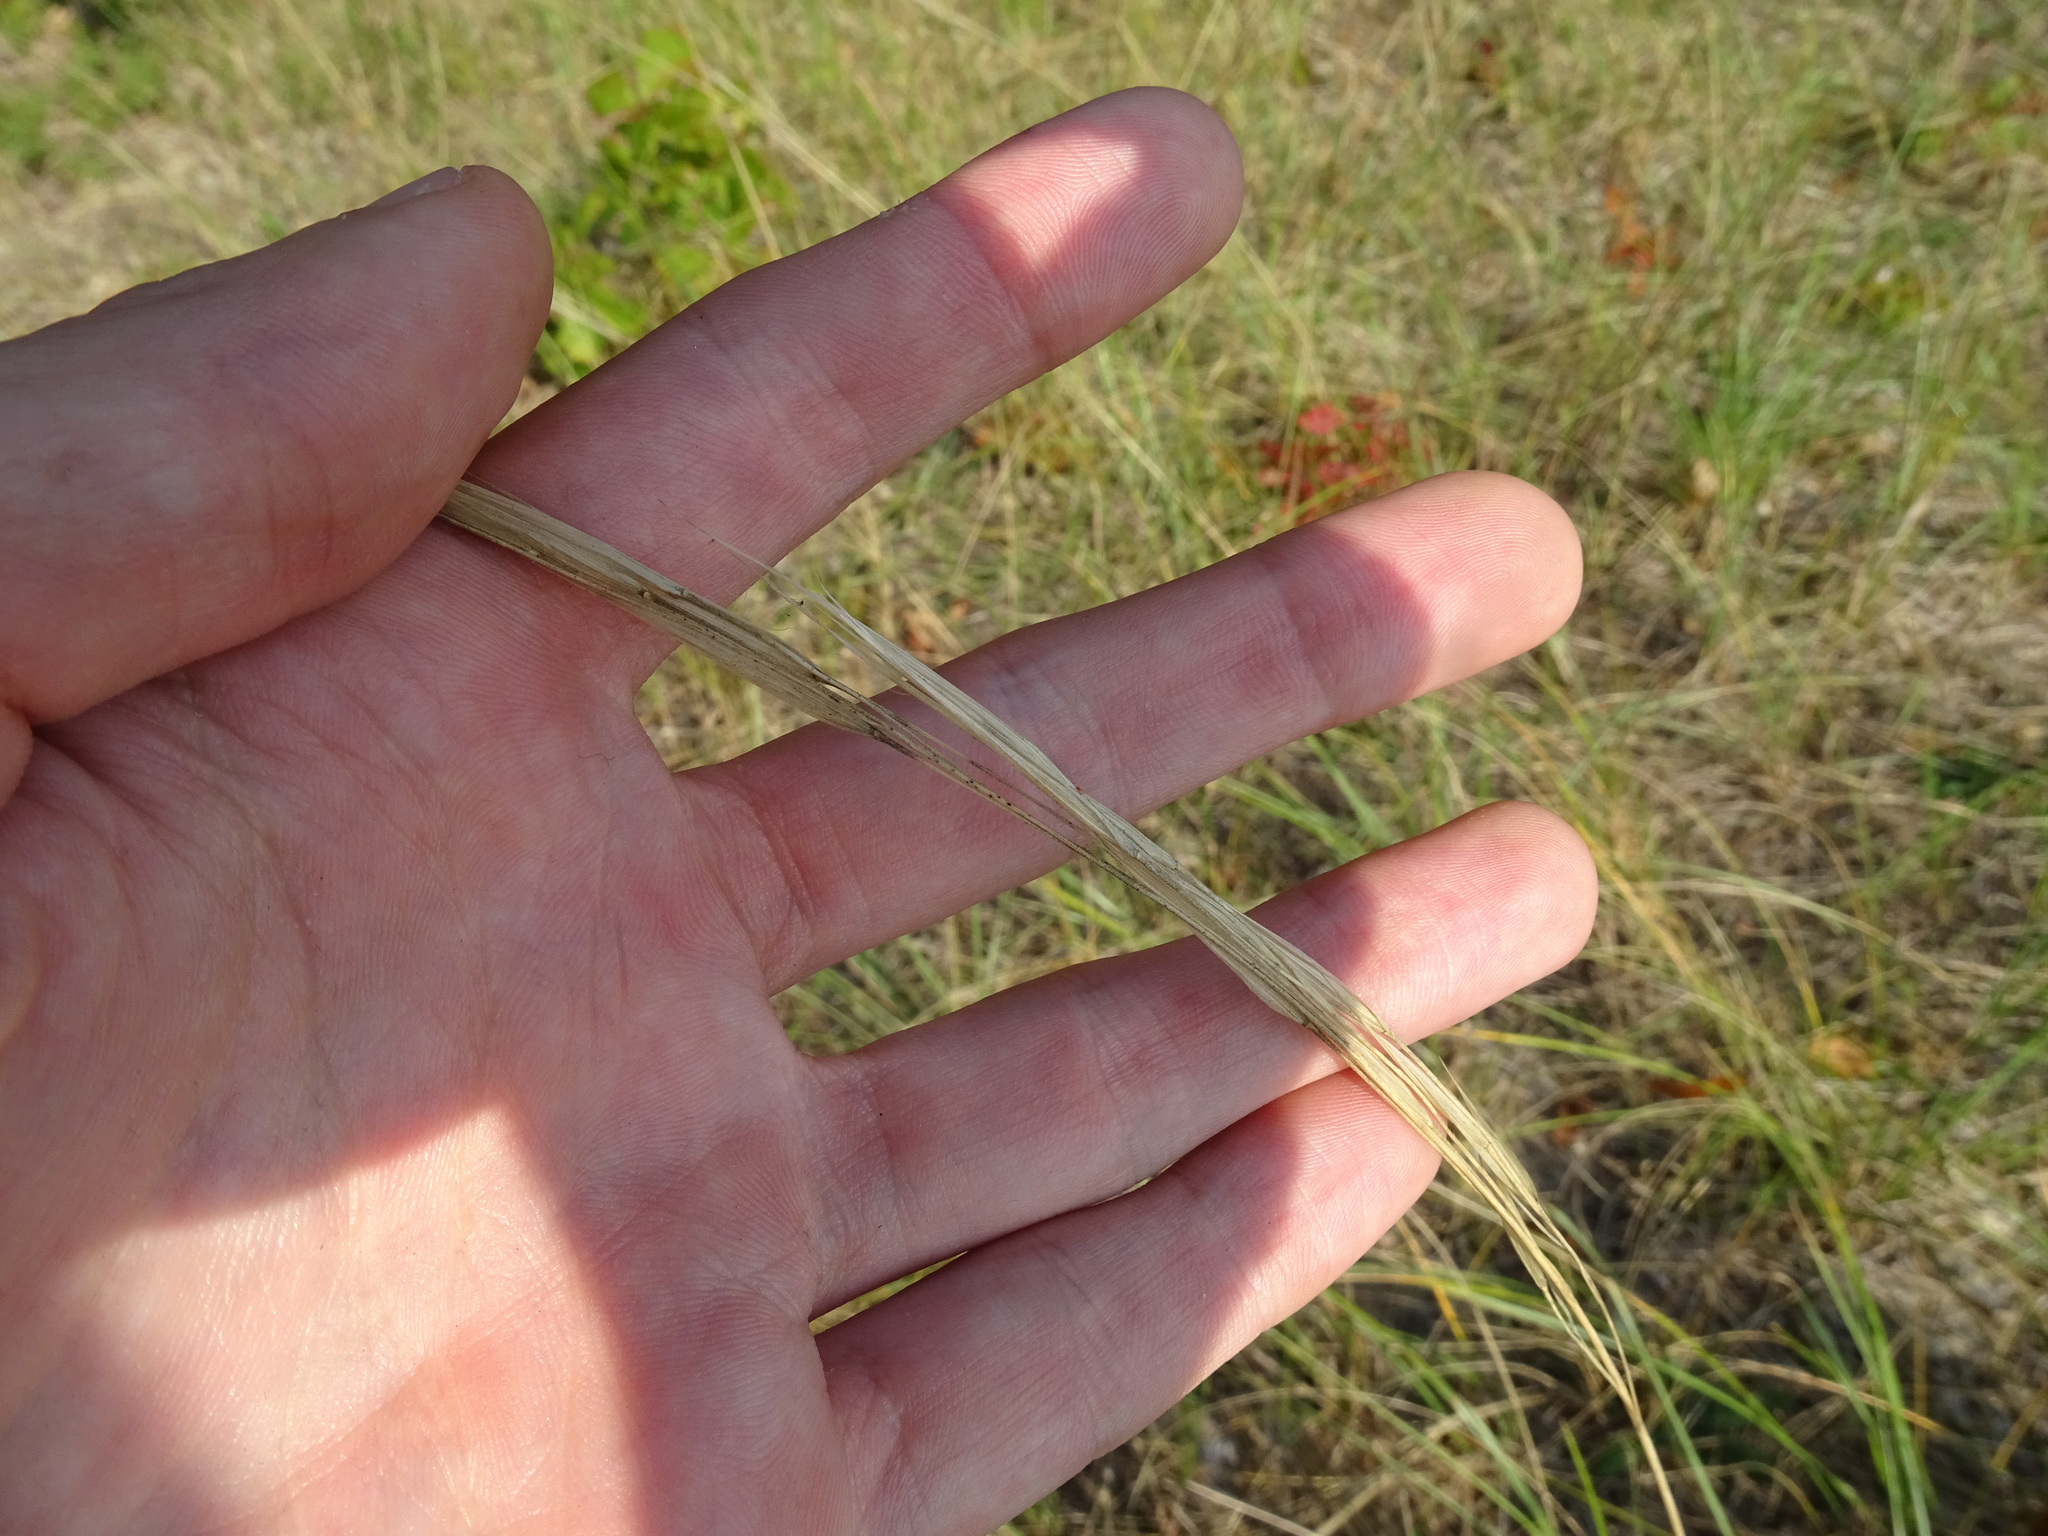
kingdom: Plantae
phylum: Tracheophyta
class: Liliopsida
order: Poales
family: Poaceae
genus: Hesperostipa
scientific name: Hesperostipa spartea
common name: Porcupine grass
